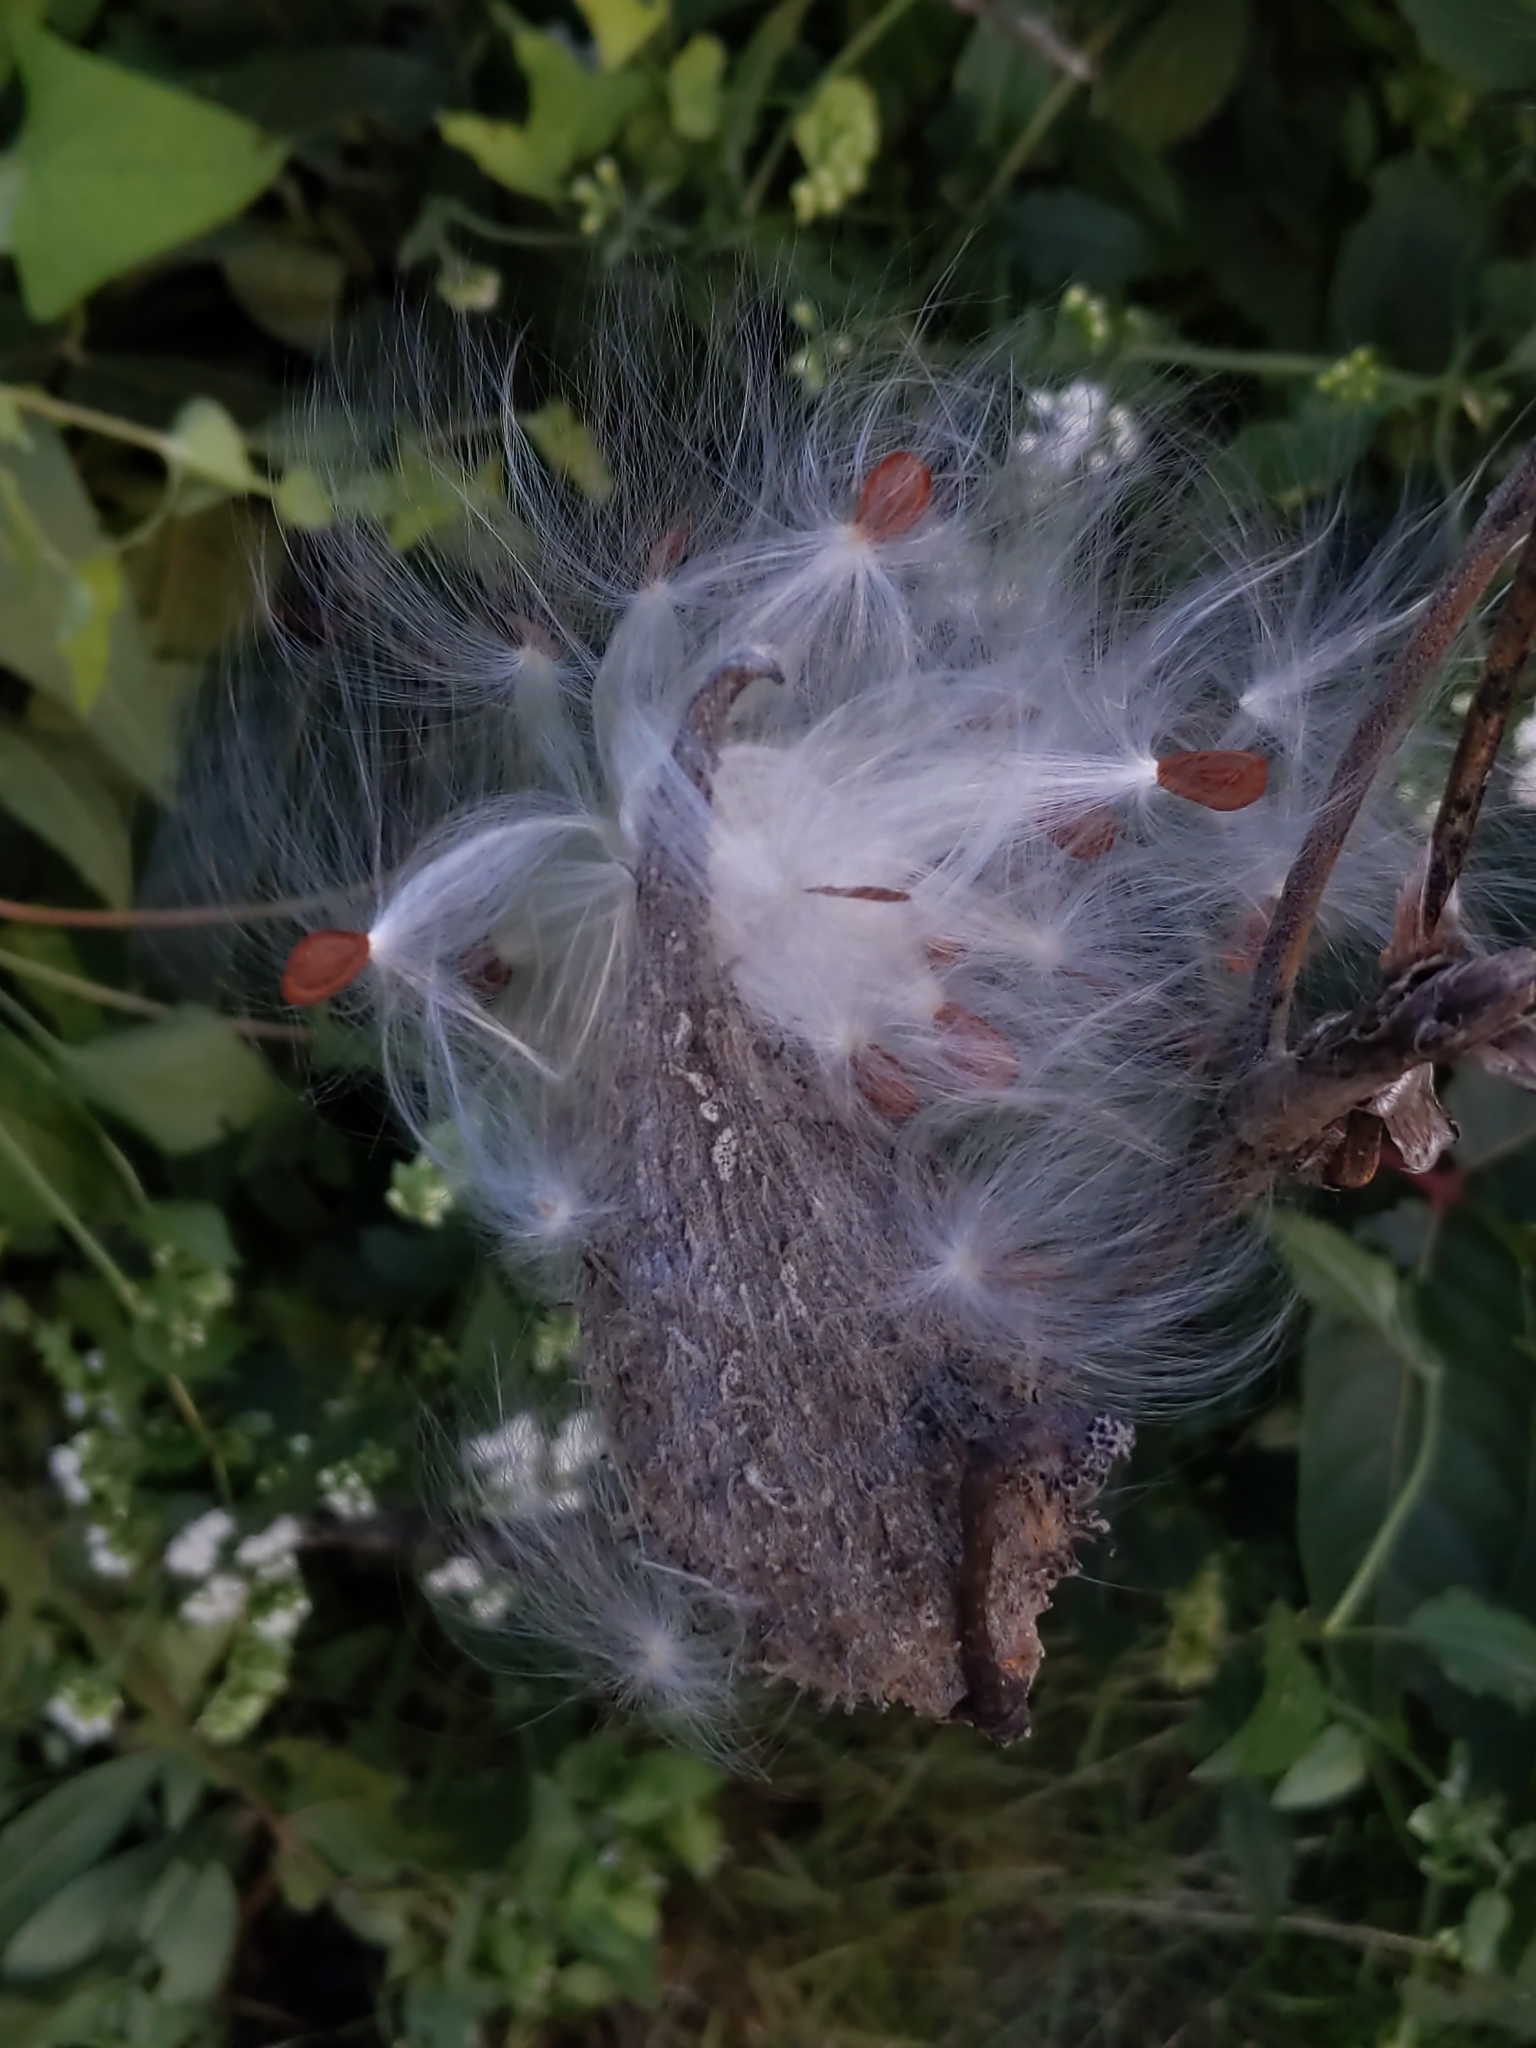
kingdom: Plantae
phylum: Tracheophyta
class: Magnoliopsida
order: Gentianales
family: Apocynaceae
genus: Asclepias
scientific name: Asclepias syriaca
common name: Common milkweed
